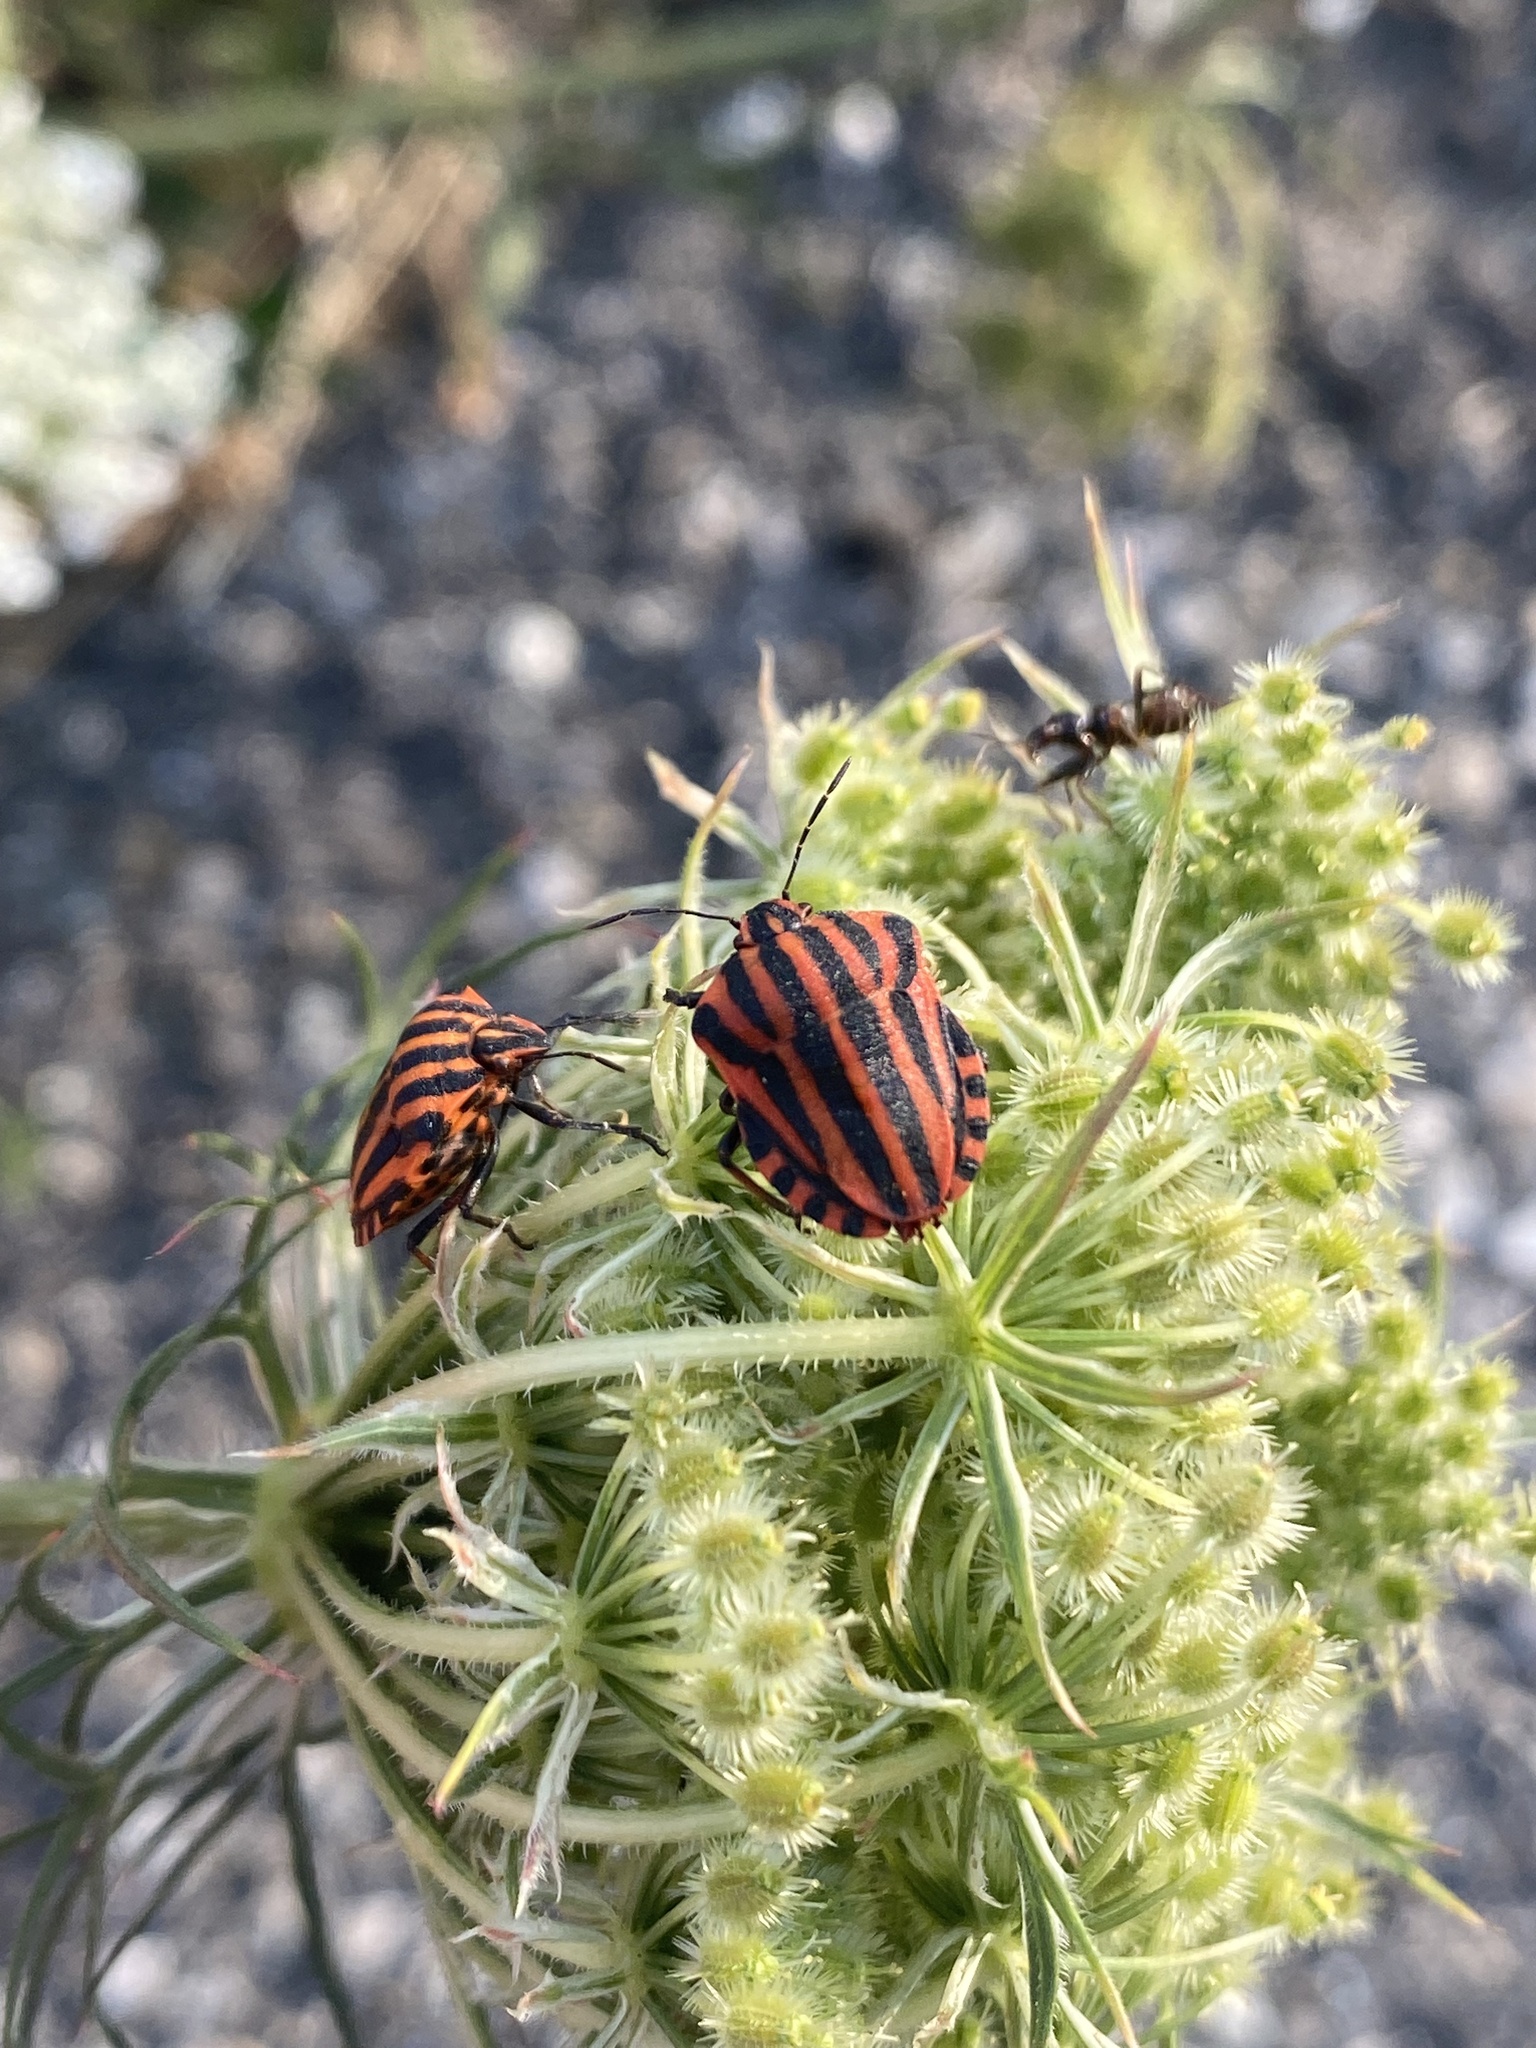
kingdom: Animalia
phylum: Arthropoda
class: Insecta
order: Hemiptera
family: Pentatomidae
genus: Graphosoma
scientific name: Graphosoma italicum
